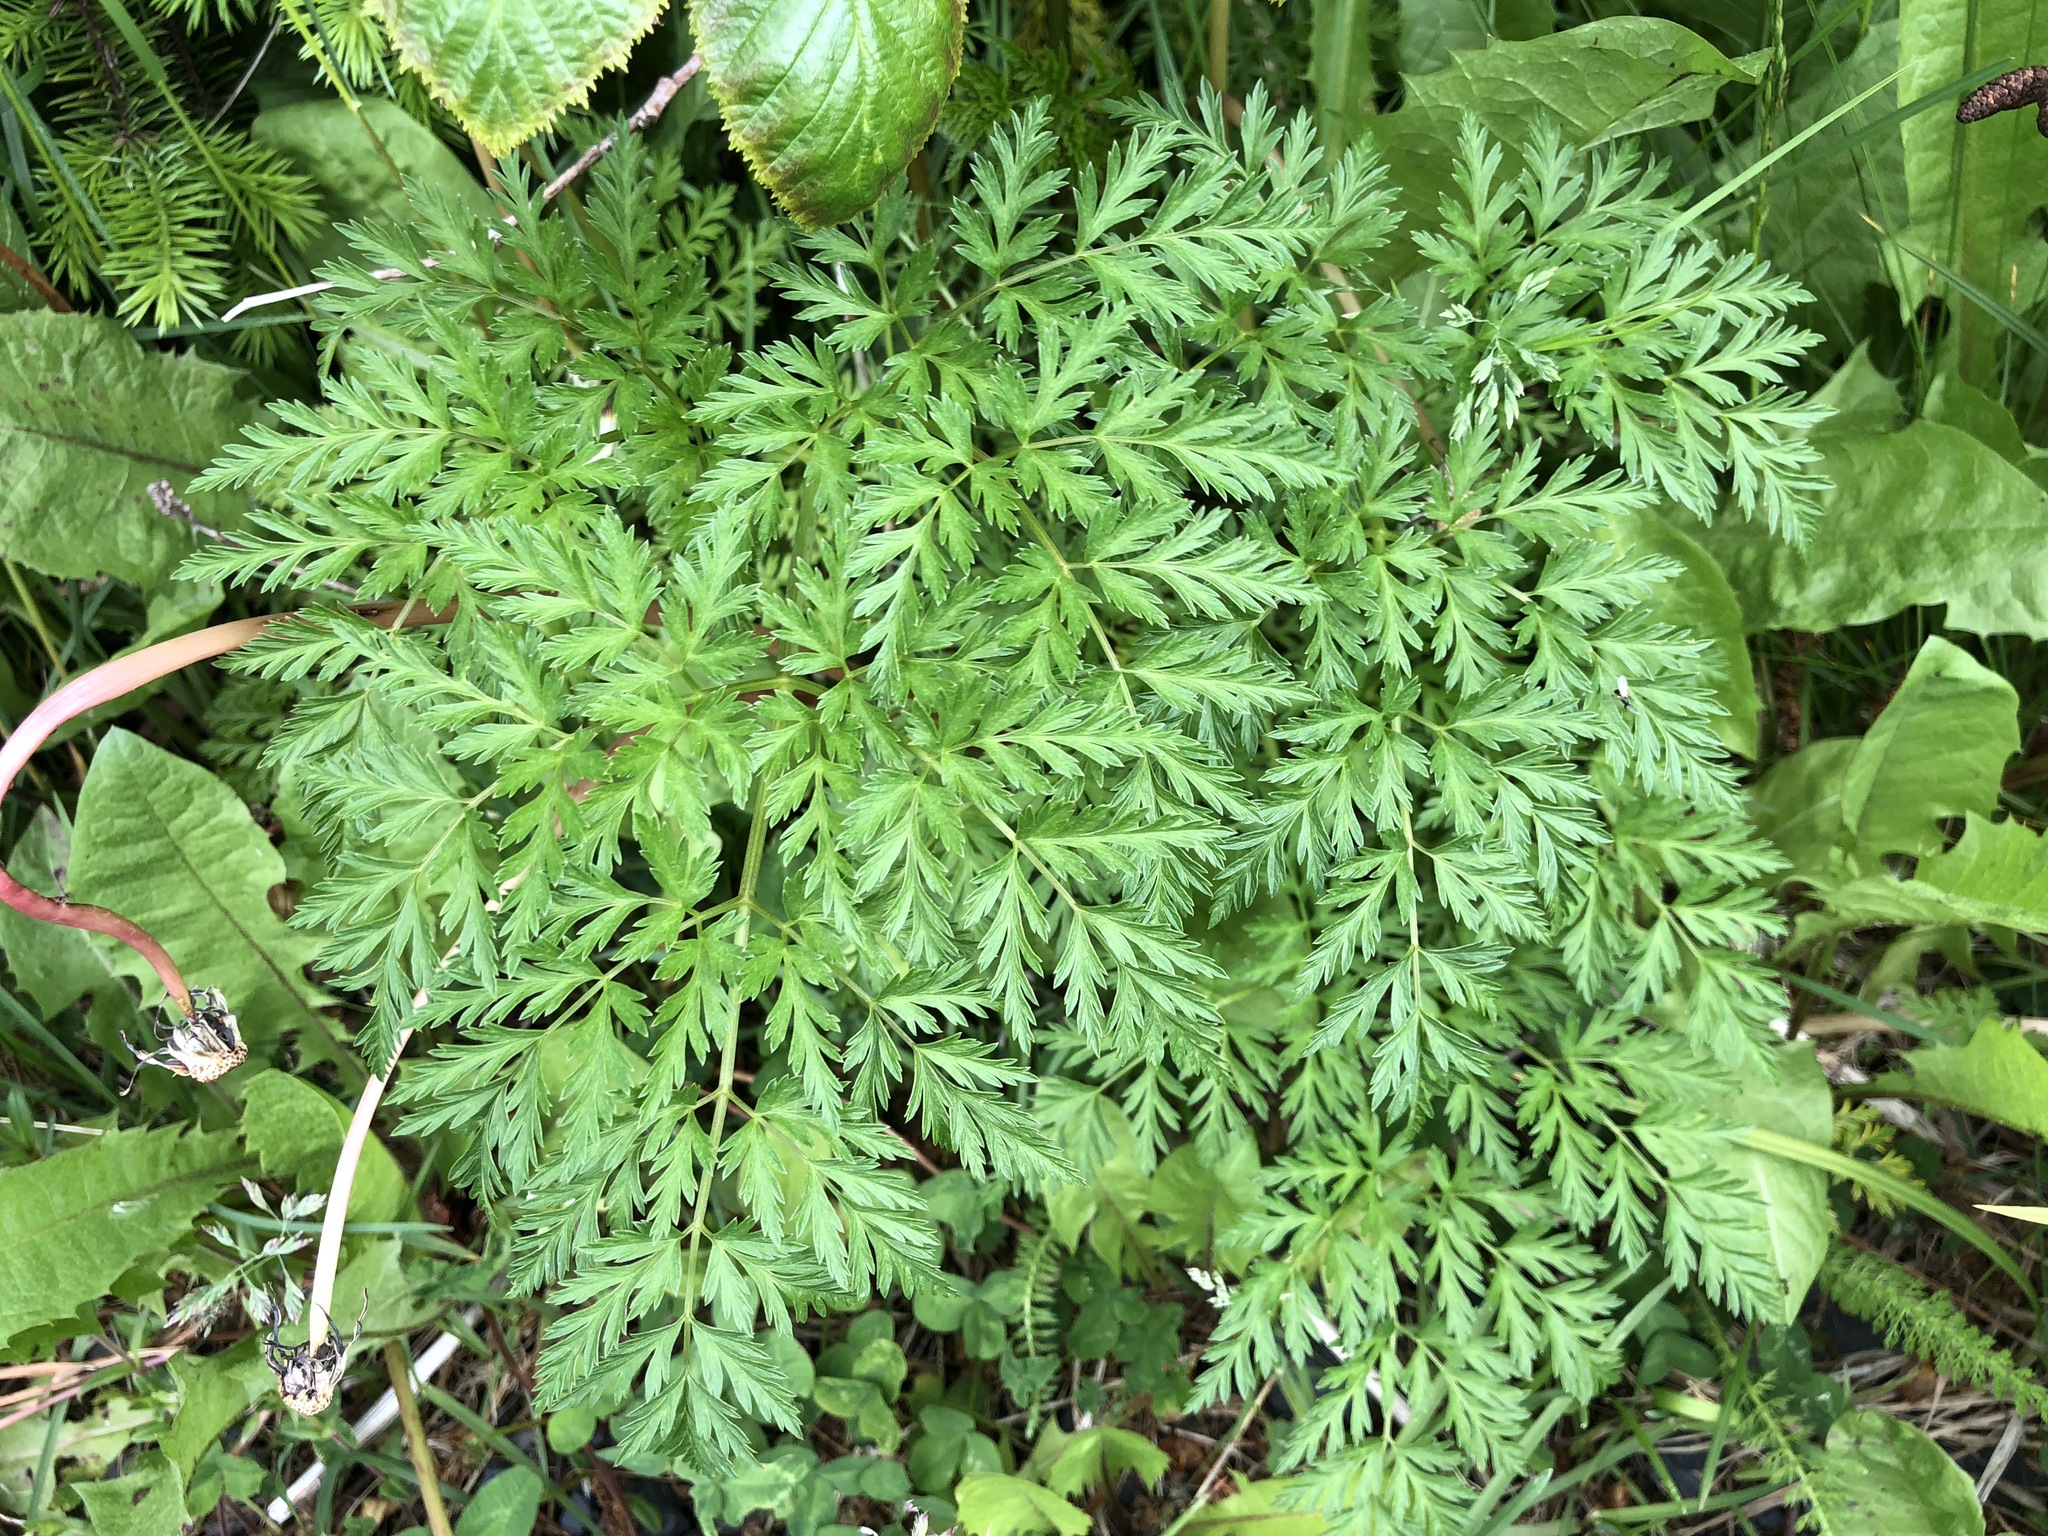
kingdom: Plantae
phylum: Tracheophyta
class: Magnoliopsida
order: Apiales
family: Apiaceae
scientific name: Apiaceae
